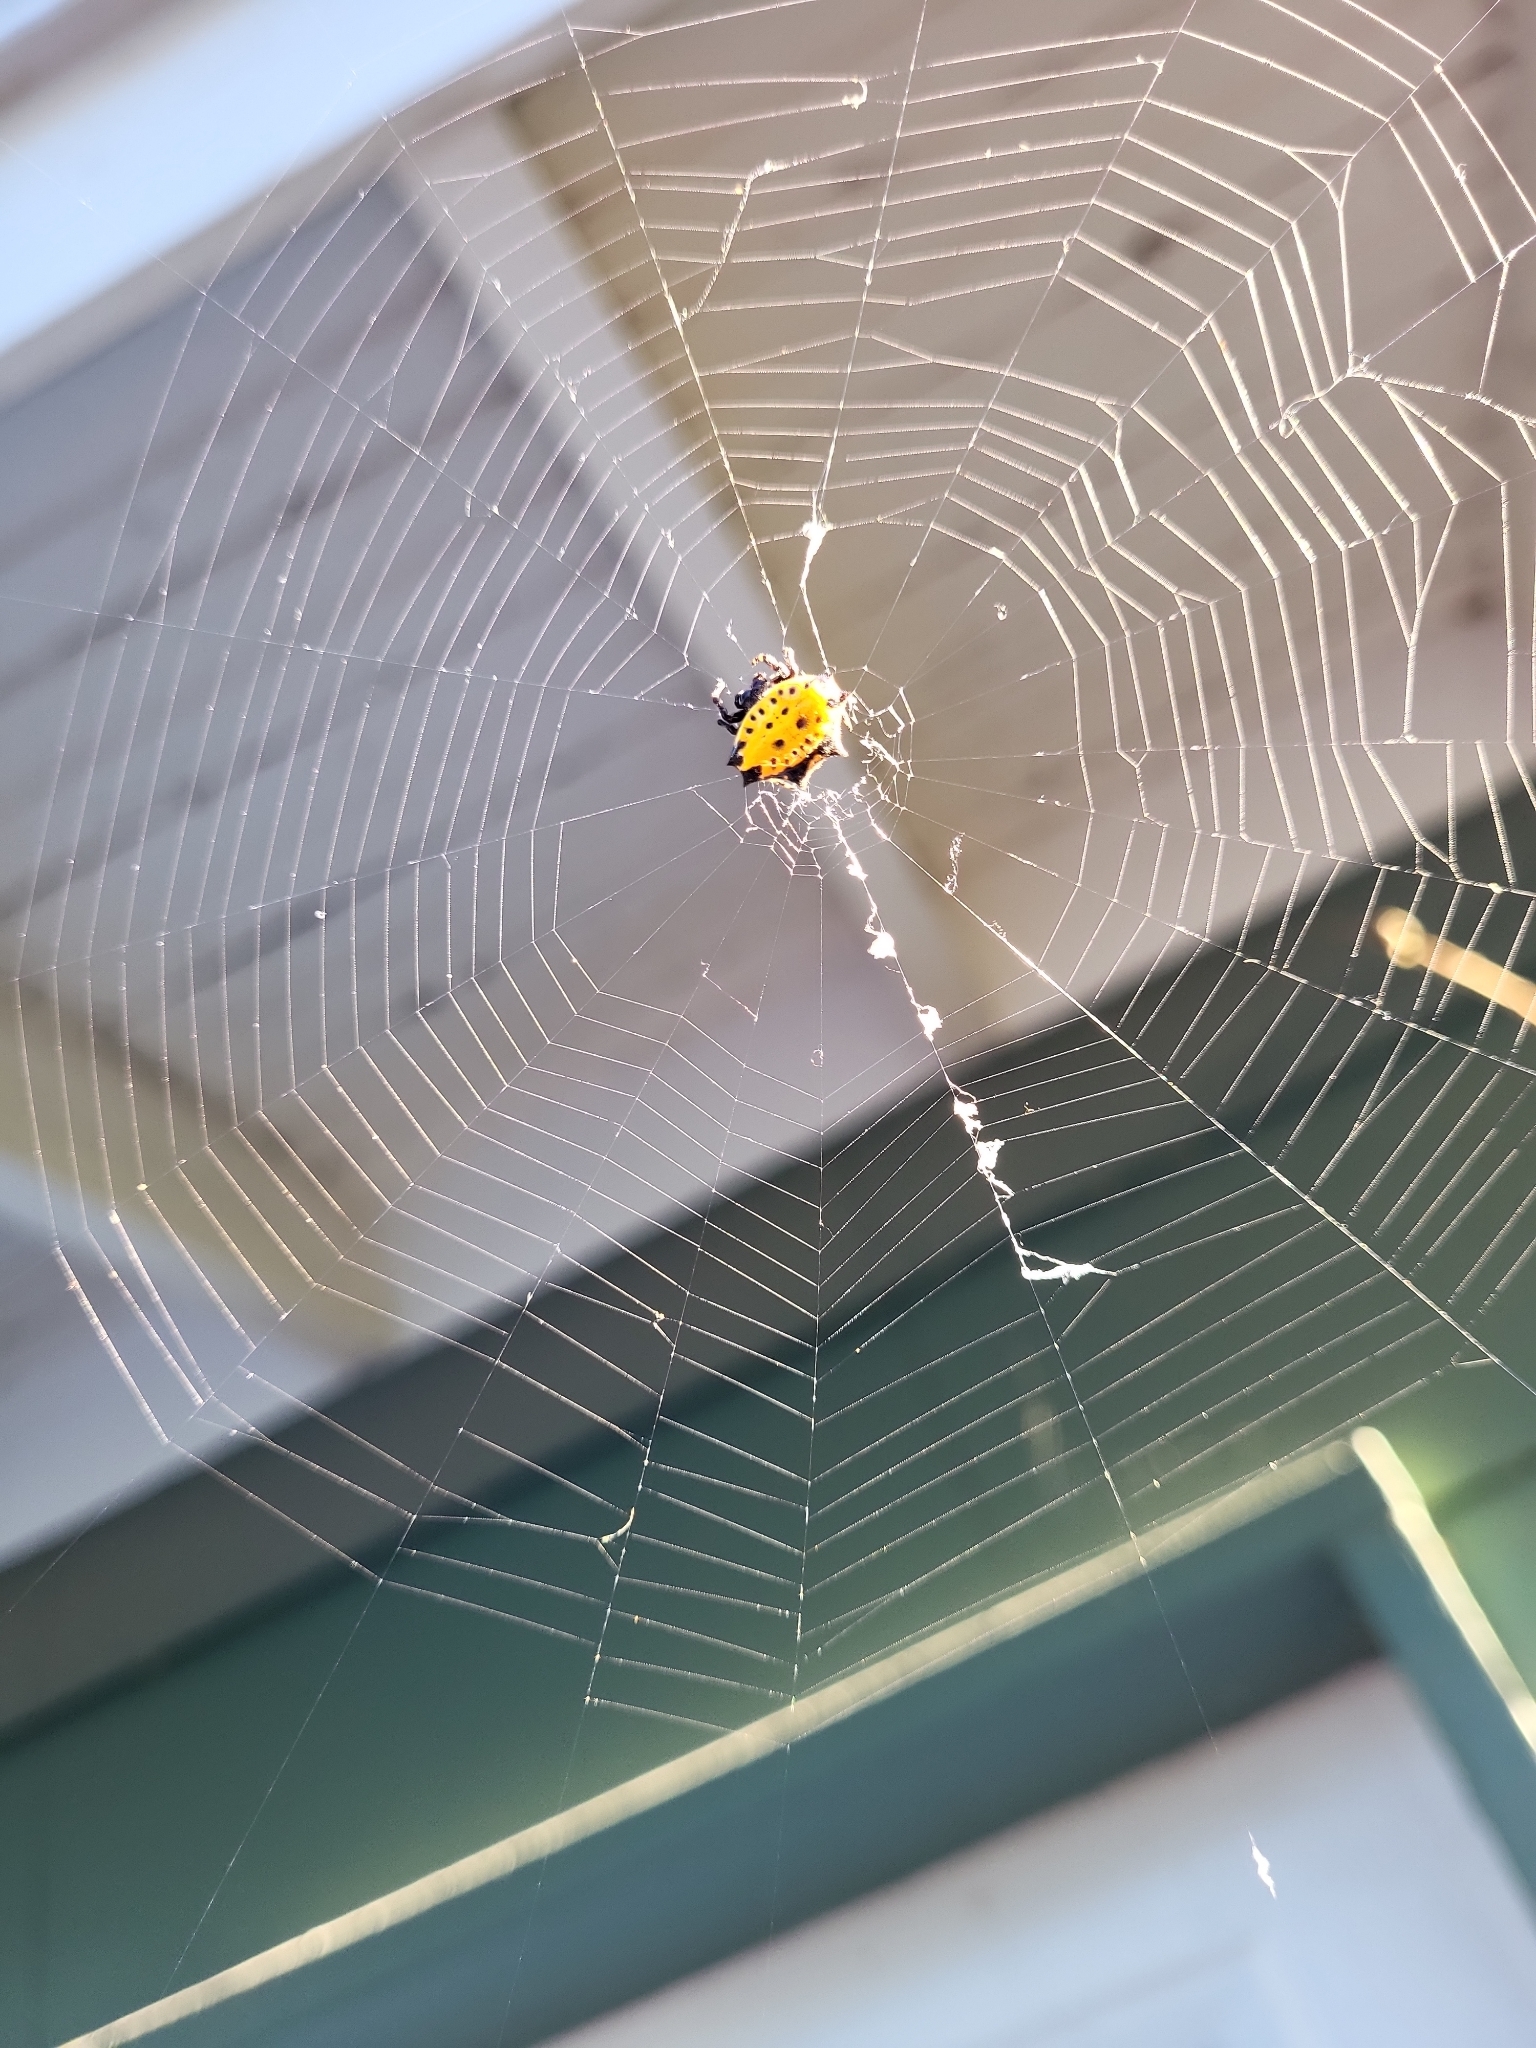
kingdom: Animalia
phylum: Arthropoda
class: Arachnida
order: Araneae
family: Araneidae
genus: Gasteracantha
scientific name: Gasteracantha cancriformis
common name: Orb weavers
